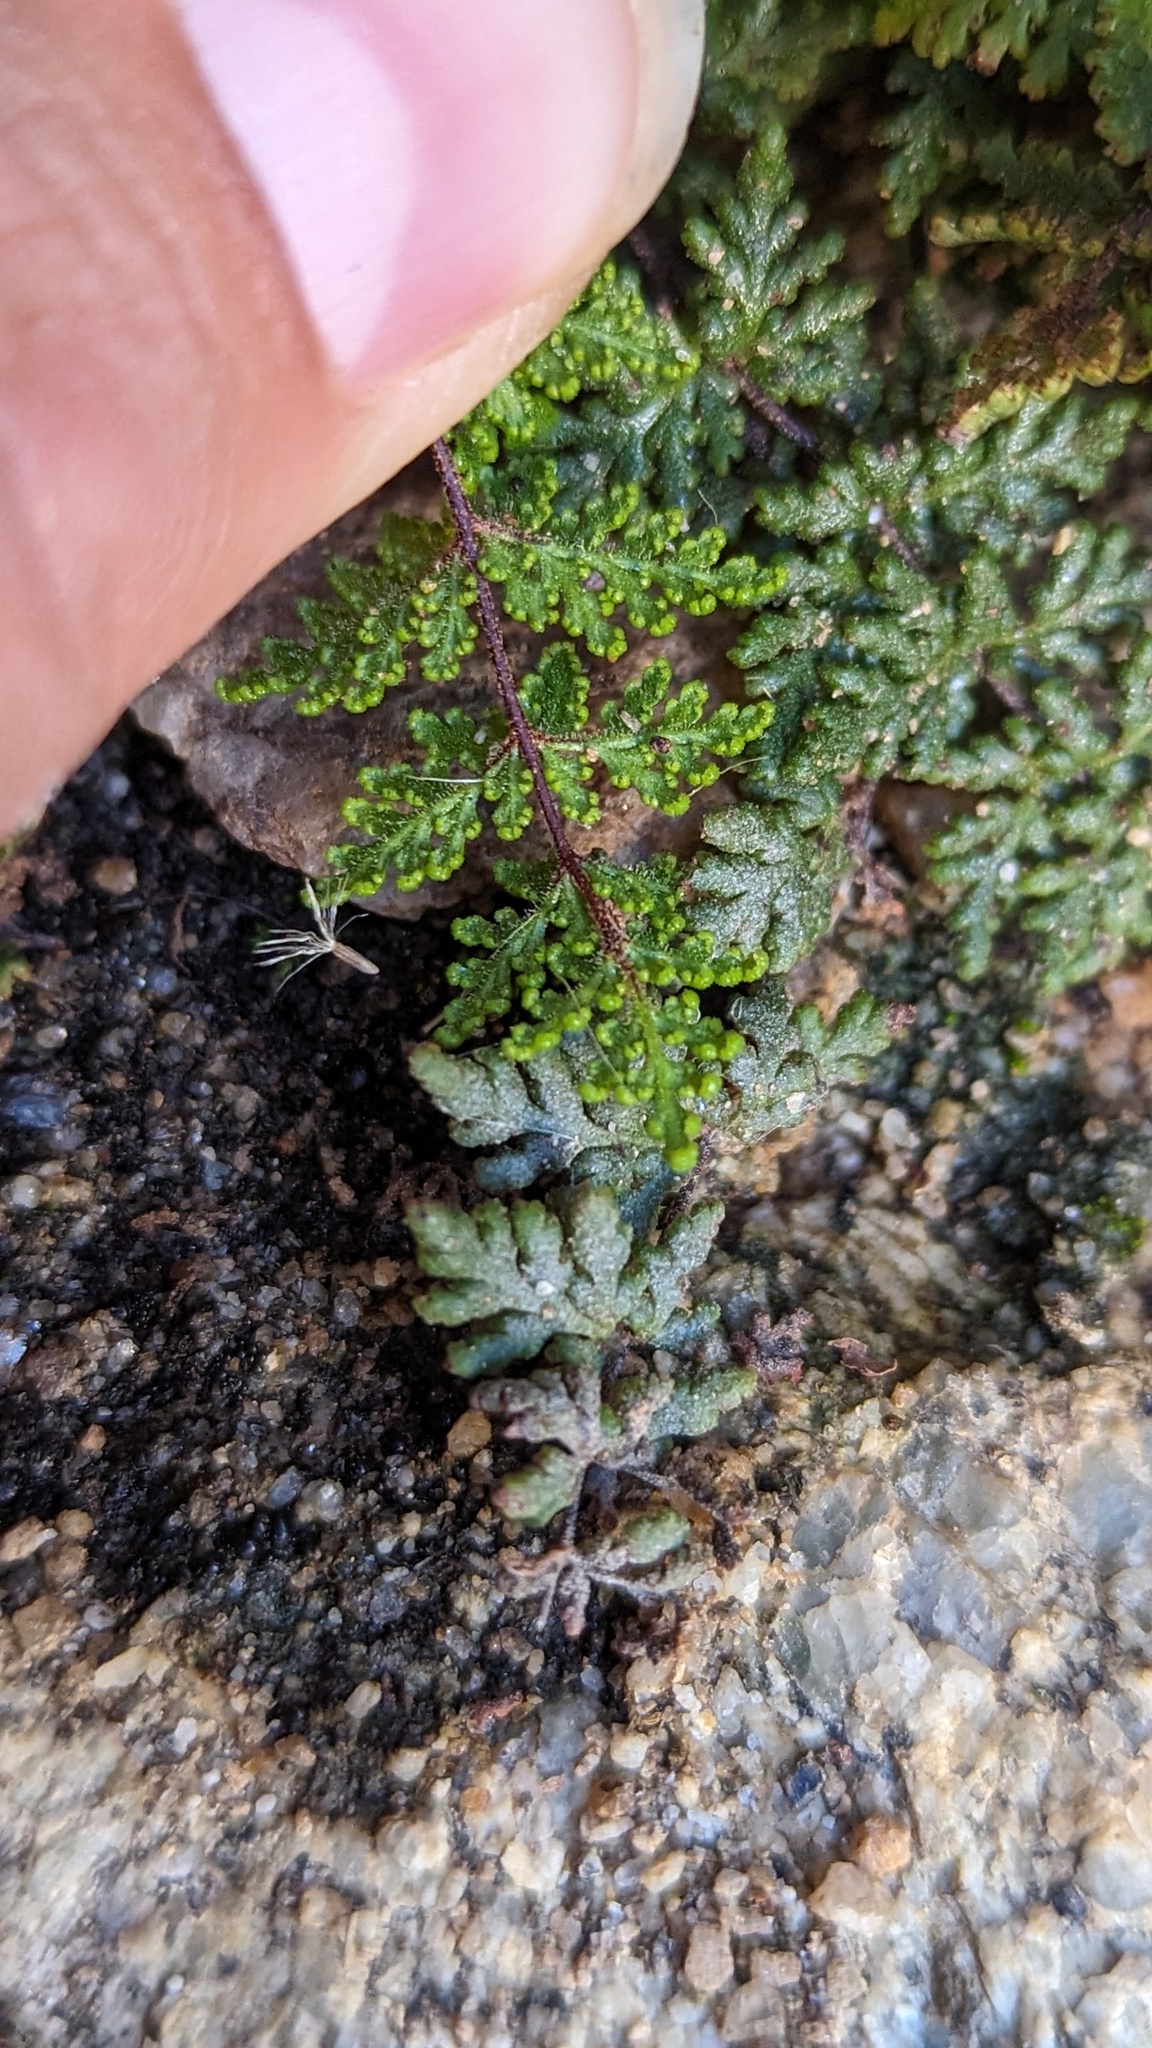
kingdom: Plantae
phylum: Tracheophyta
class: Polypodiopsida
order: Polypodiales
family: Pteridaceae
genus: Myriopteris
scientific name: Myriopteris viscida
